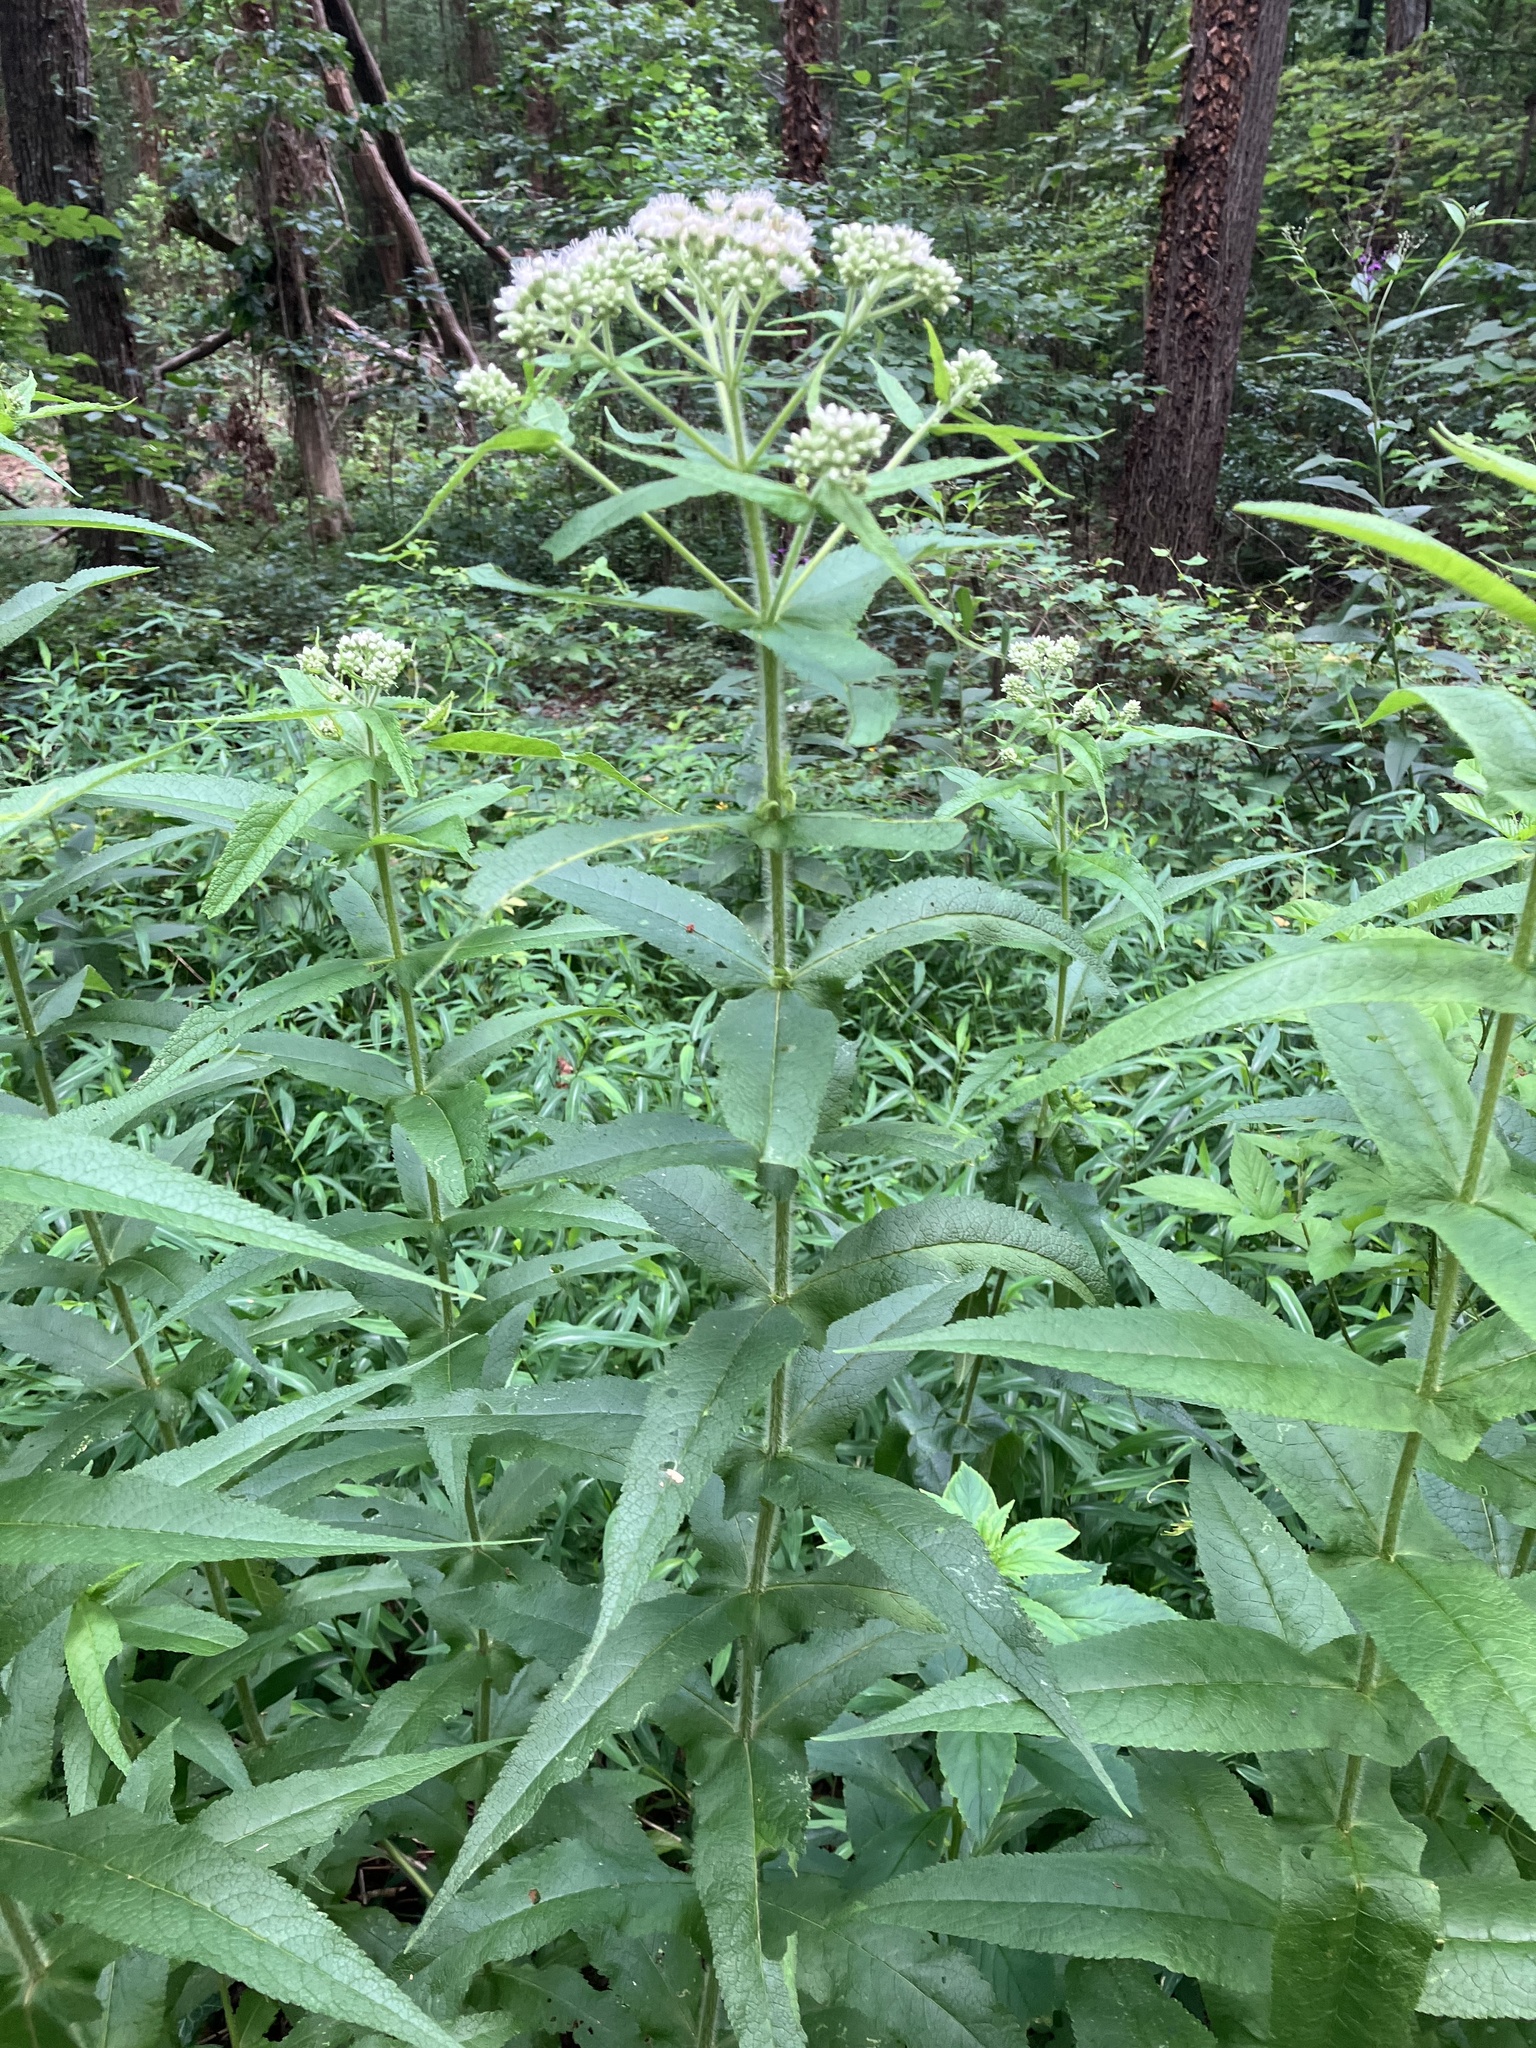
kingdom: Plantae
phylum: Tracheophyta
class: Magnoliopsida
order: Asterales
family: Asteraceae
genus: Eupatorium
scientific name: Eupatorium perfoliatum
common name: Boneset
